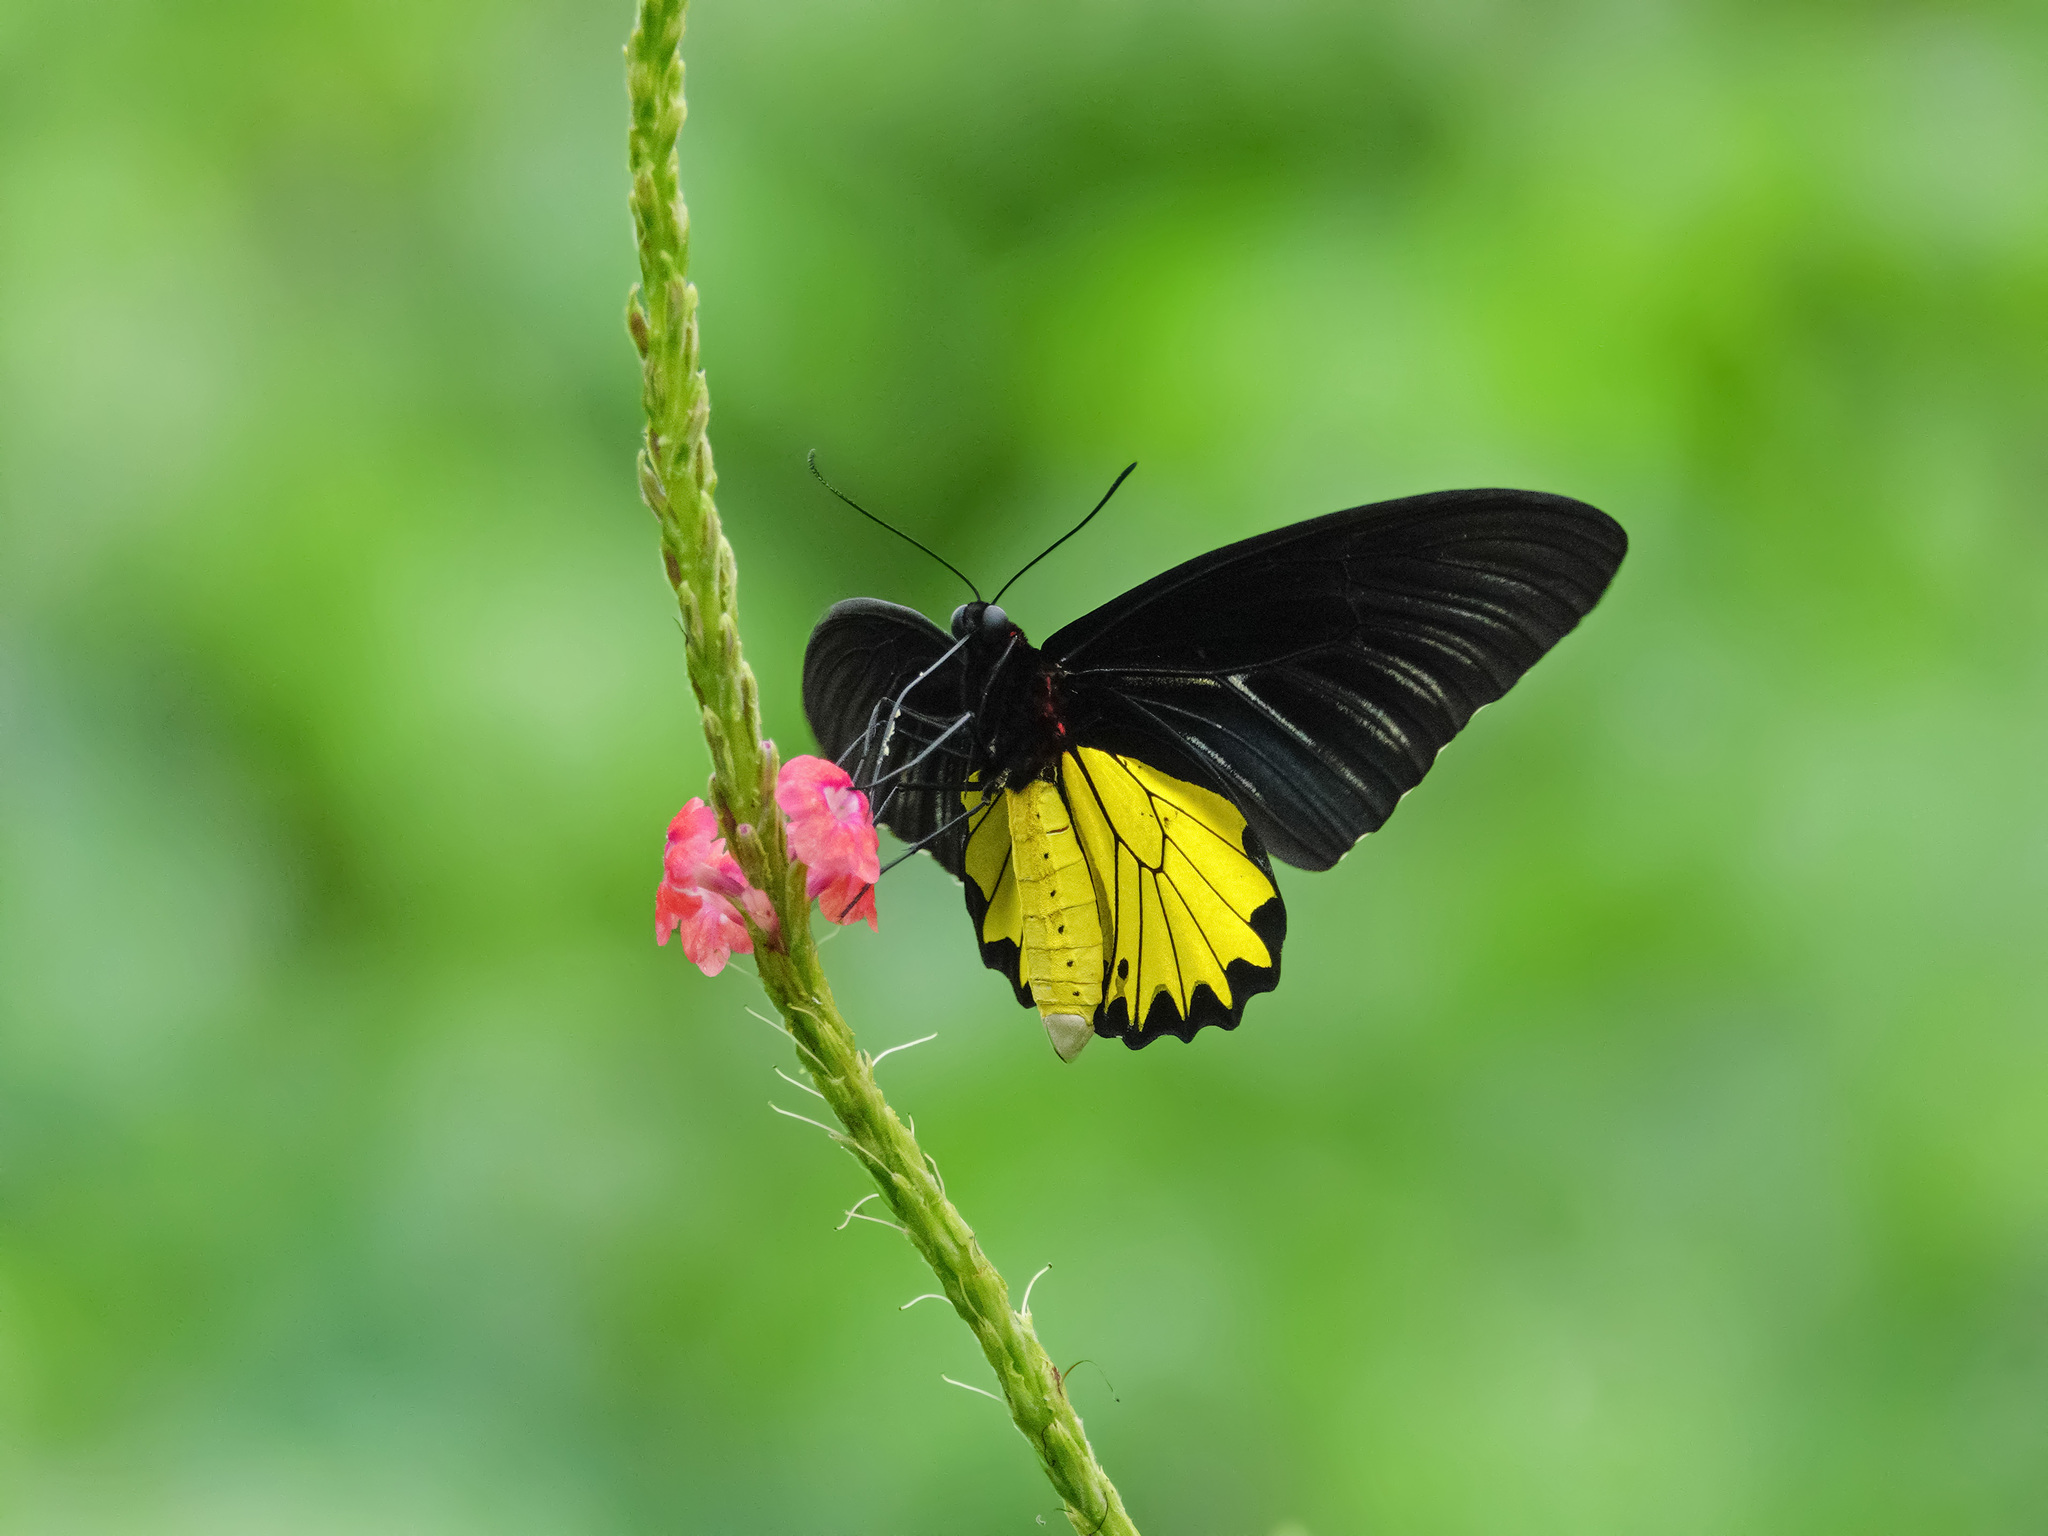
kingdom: Animalia
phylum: Arthropoda
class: Insecta
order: Lepidoptera
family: Papilionidae
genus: Troides
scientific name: Troides helena
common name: Common birdwing
